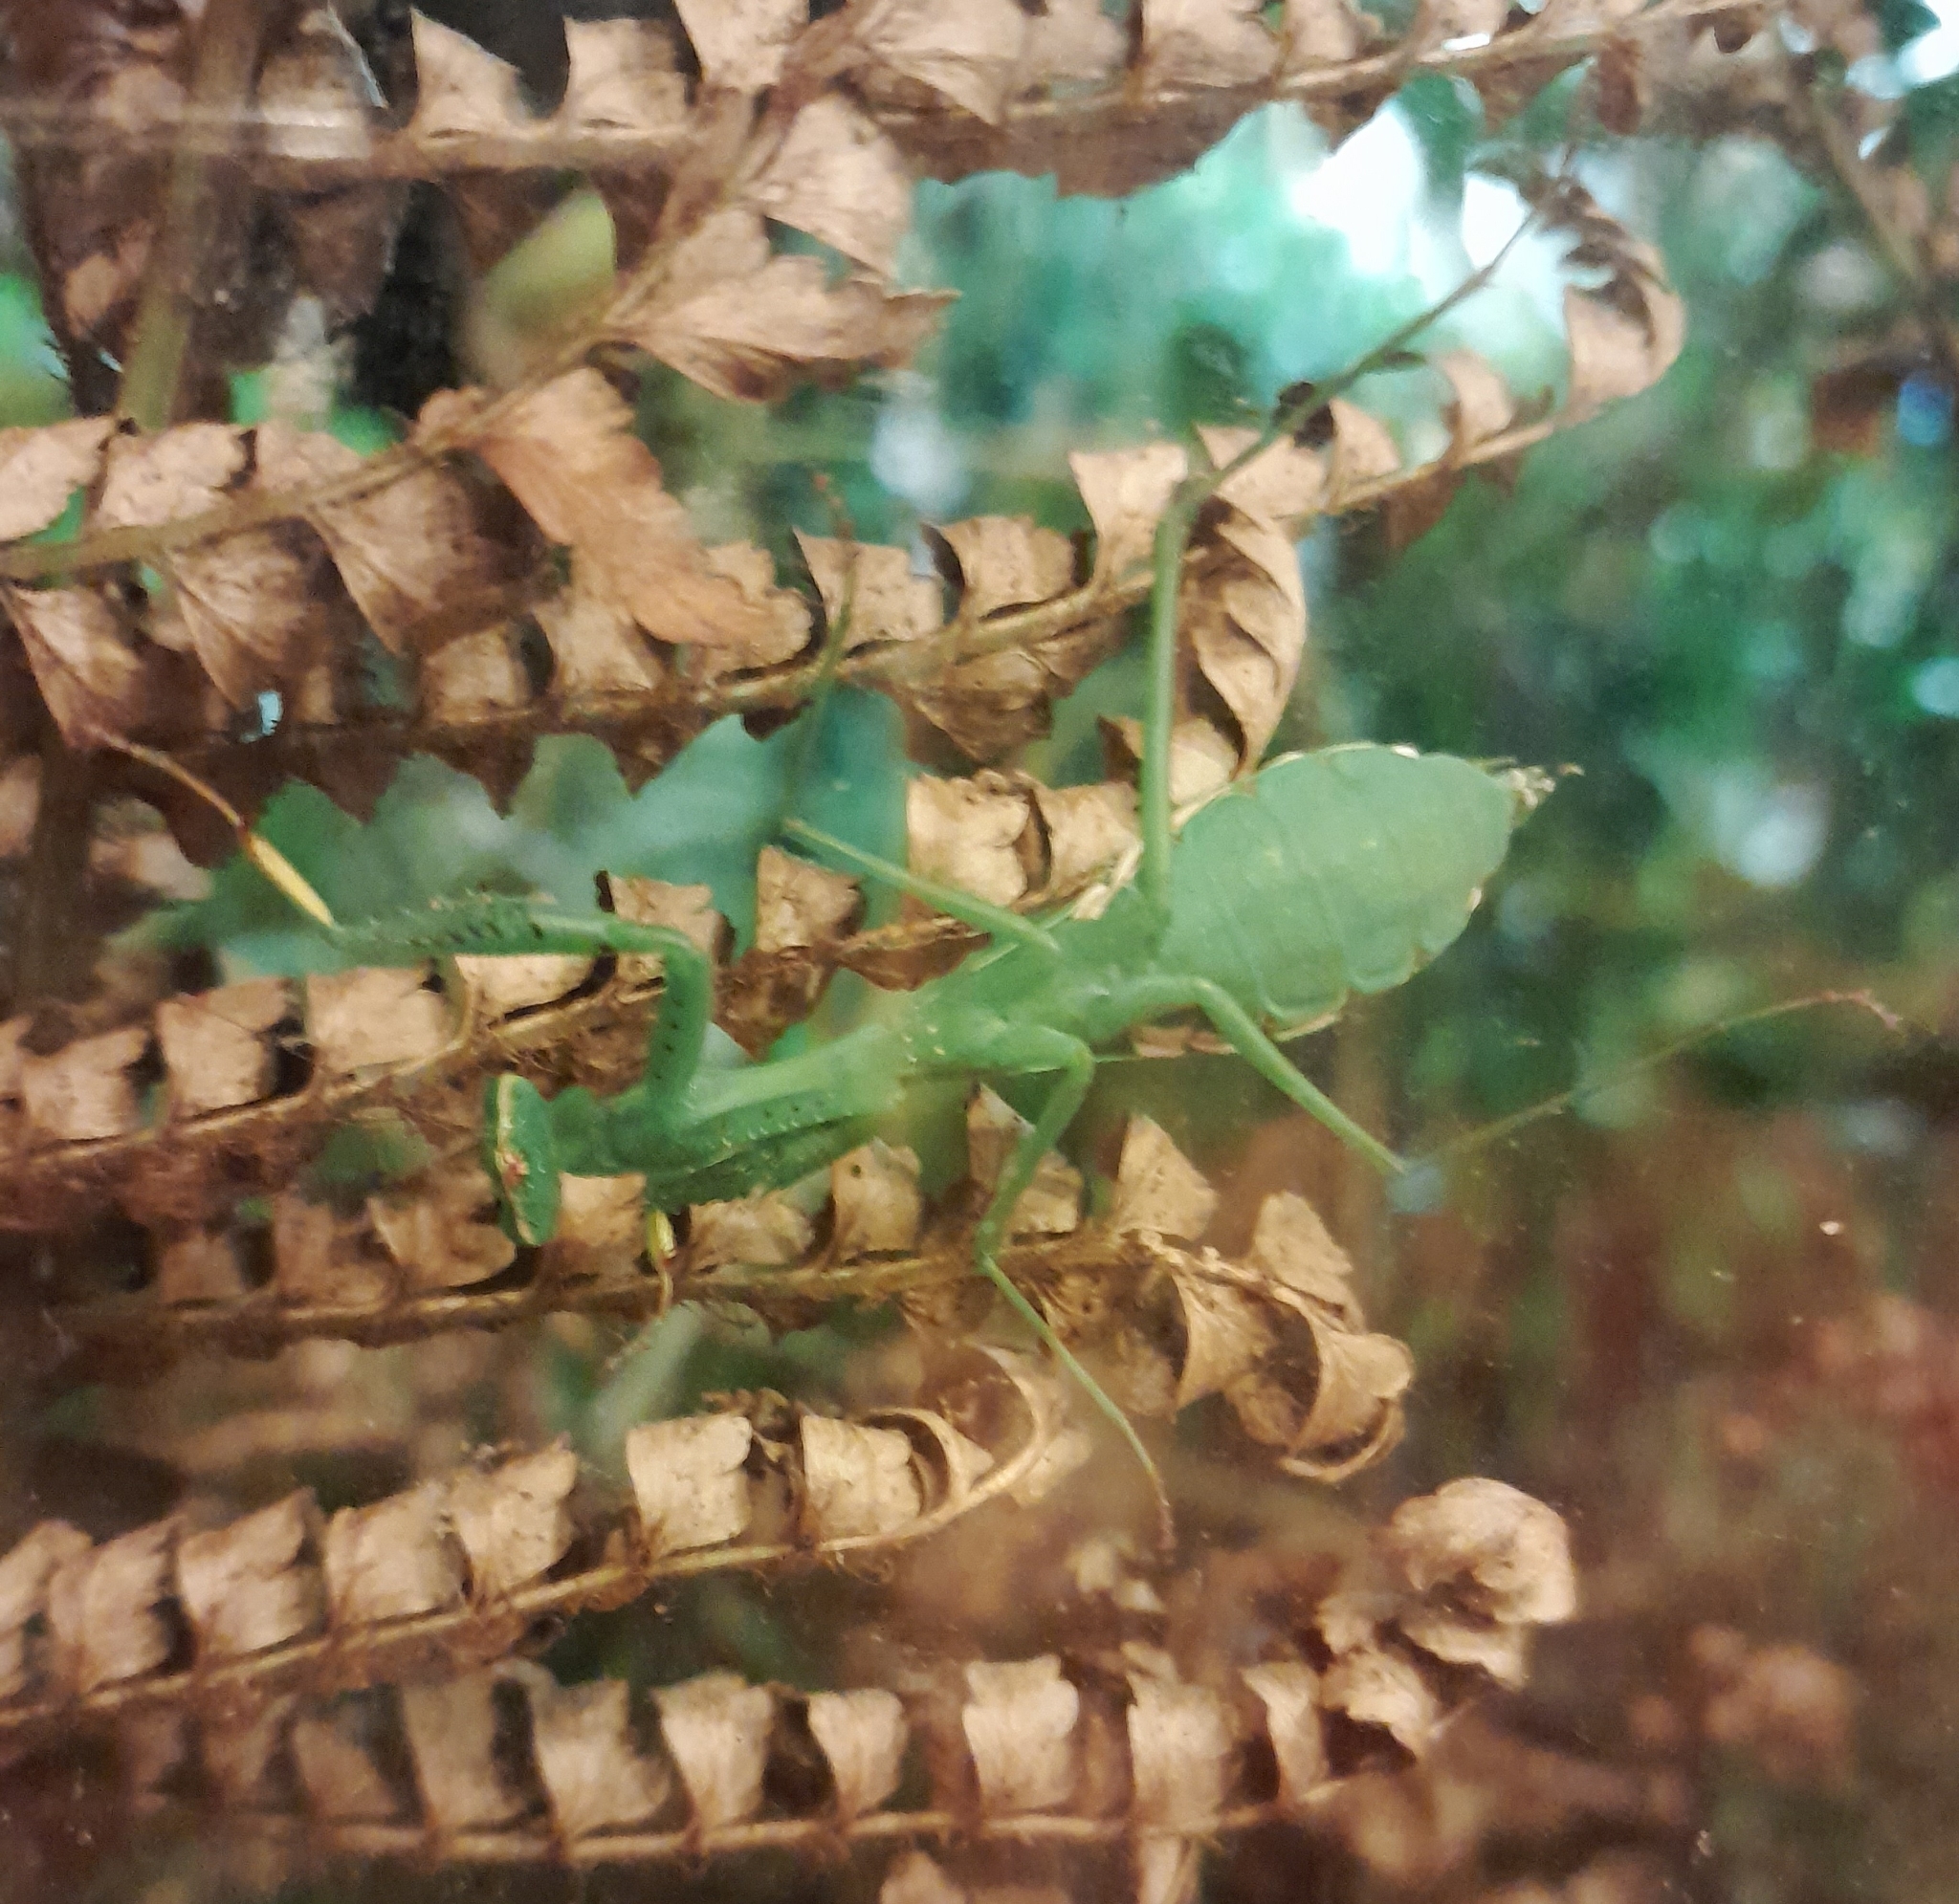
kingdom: Animalia
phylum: Arthropoda
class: Insecta
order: Mantodea
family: Miomantidae
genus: Miomantis
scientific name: Miomantis caffra
